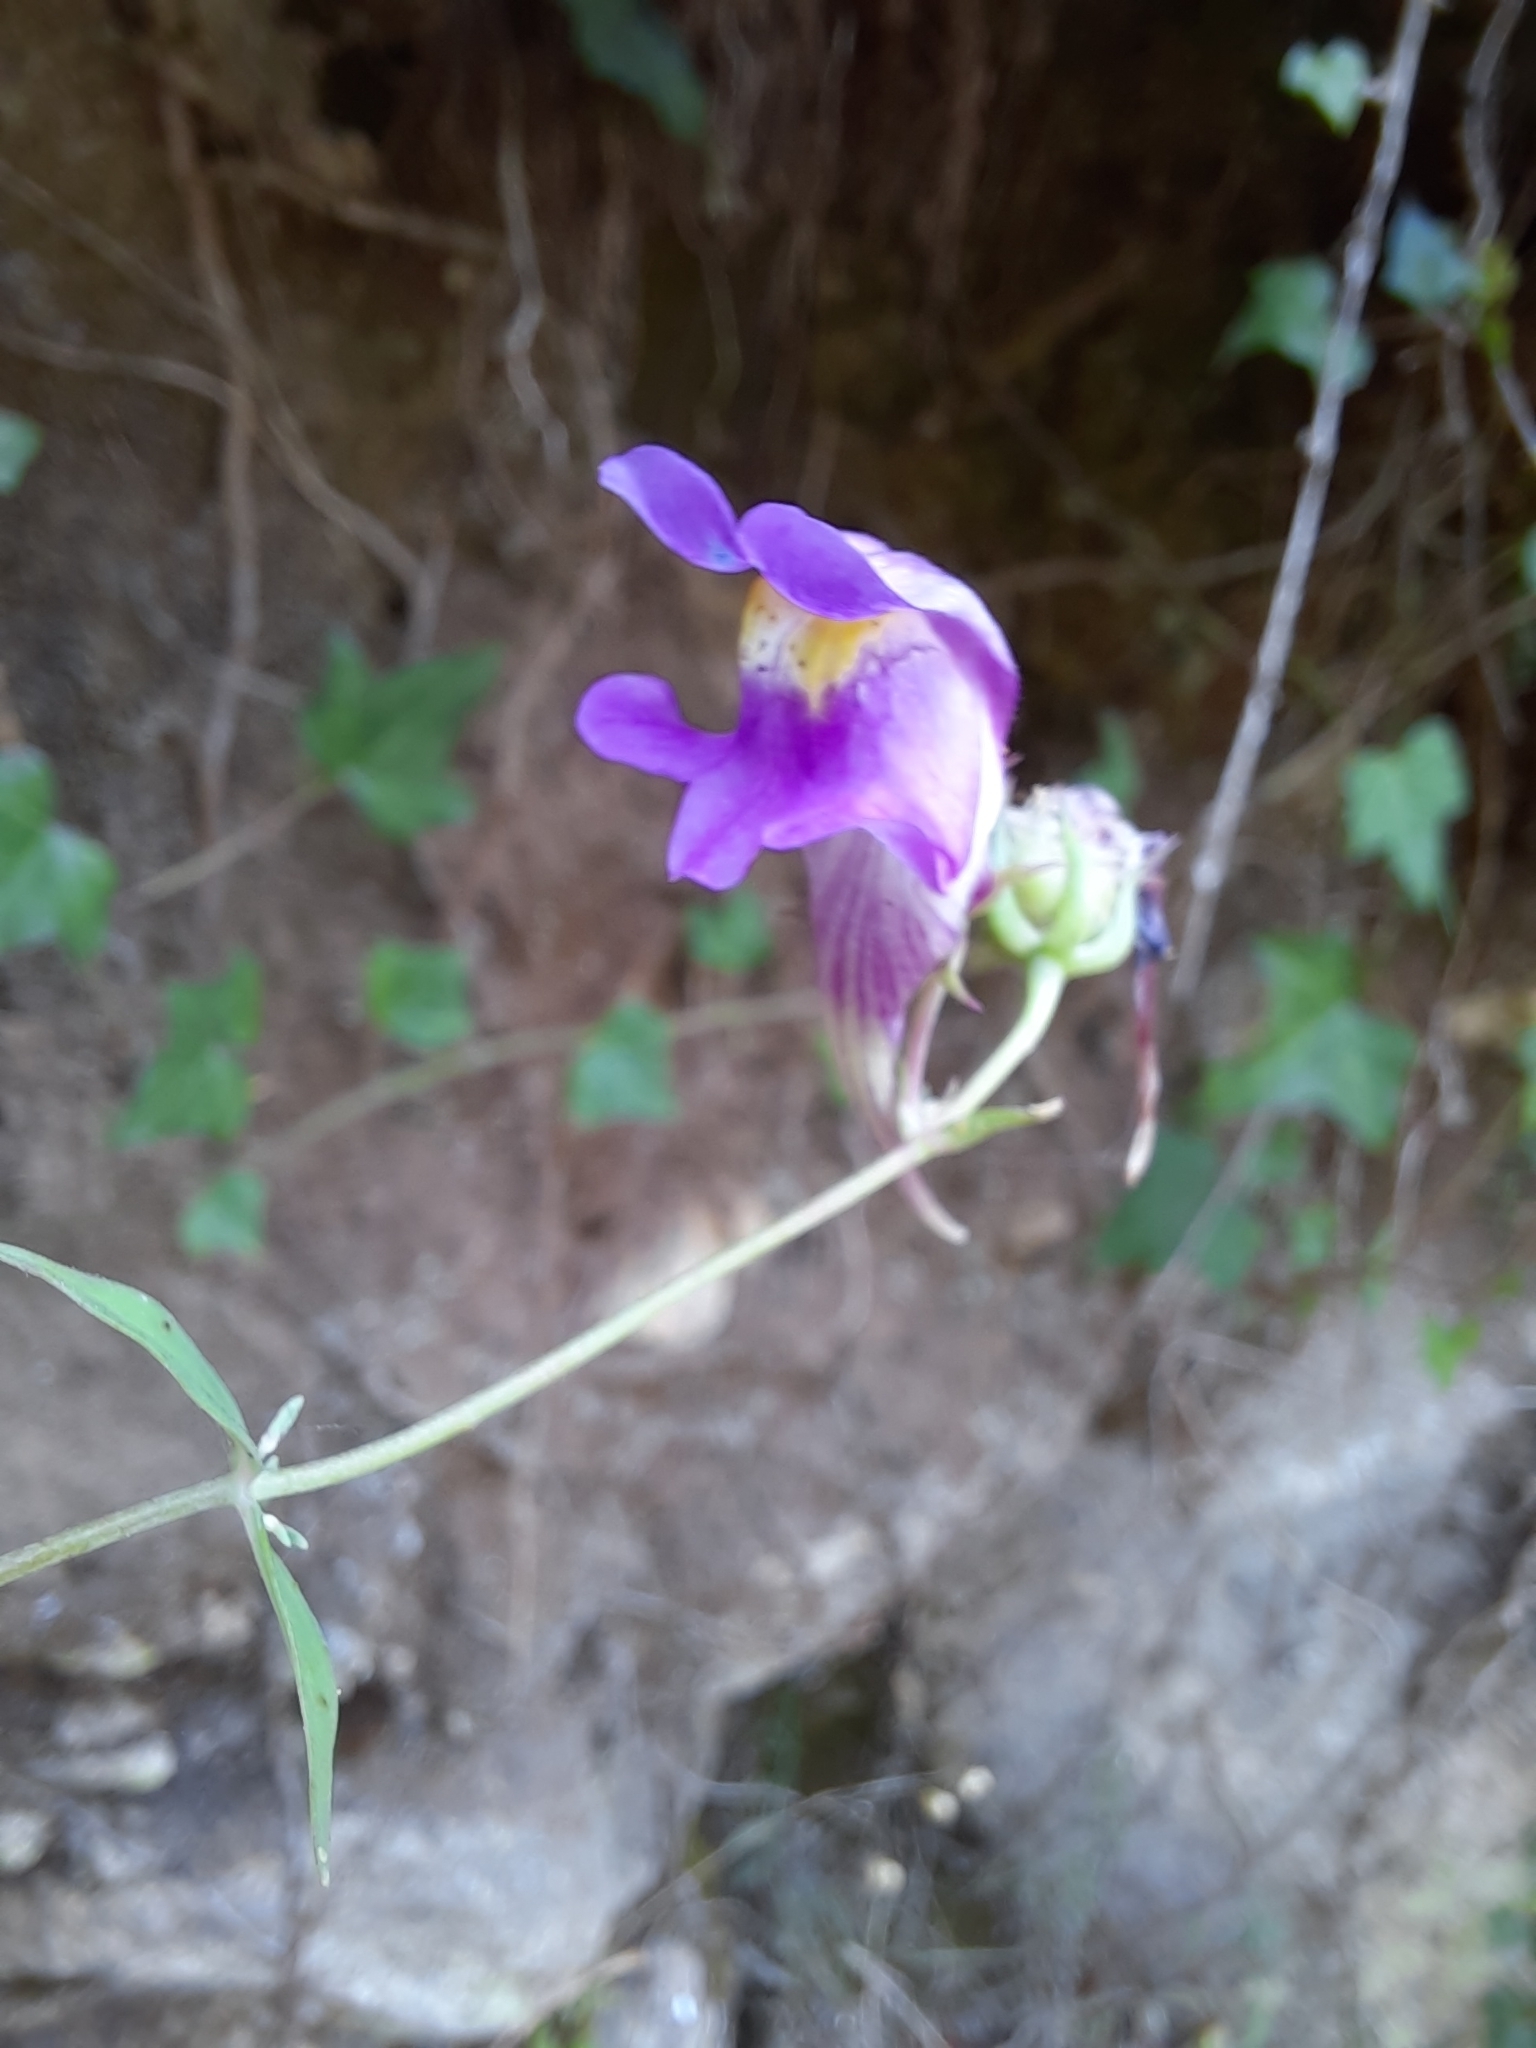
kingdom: Plantae
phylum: Tracheophyta
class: Magnoliopsida
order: Lamiales
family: Plantaginaceae
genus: Linaria
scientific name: Linaria triornithophora
